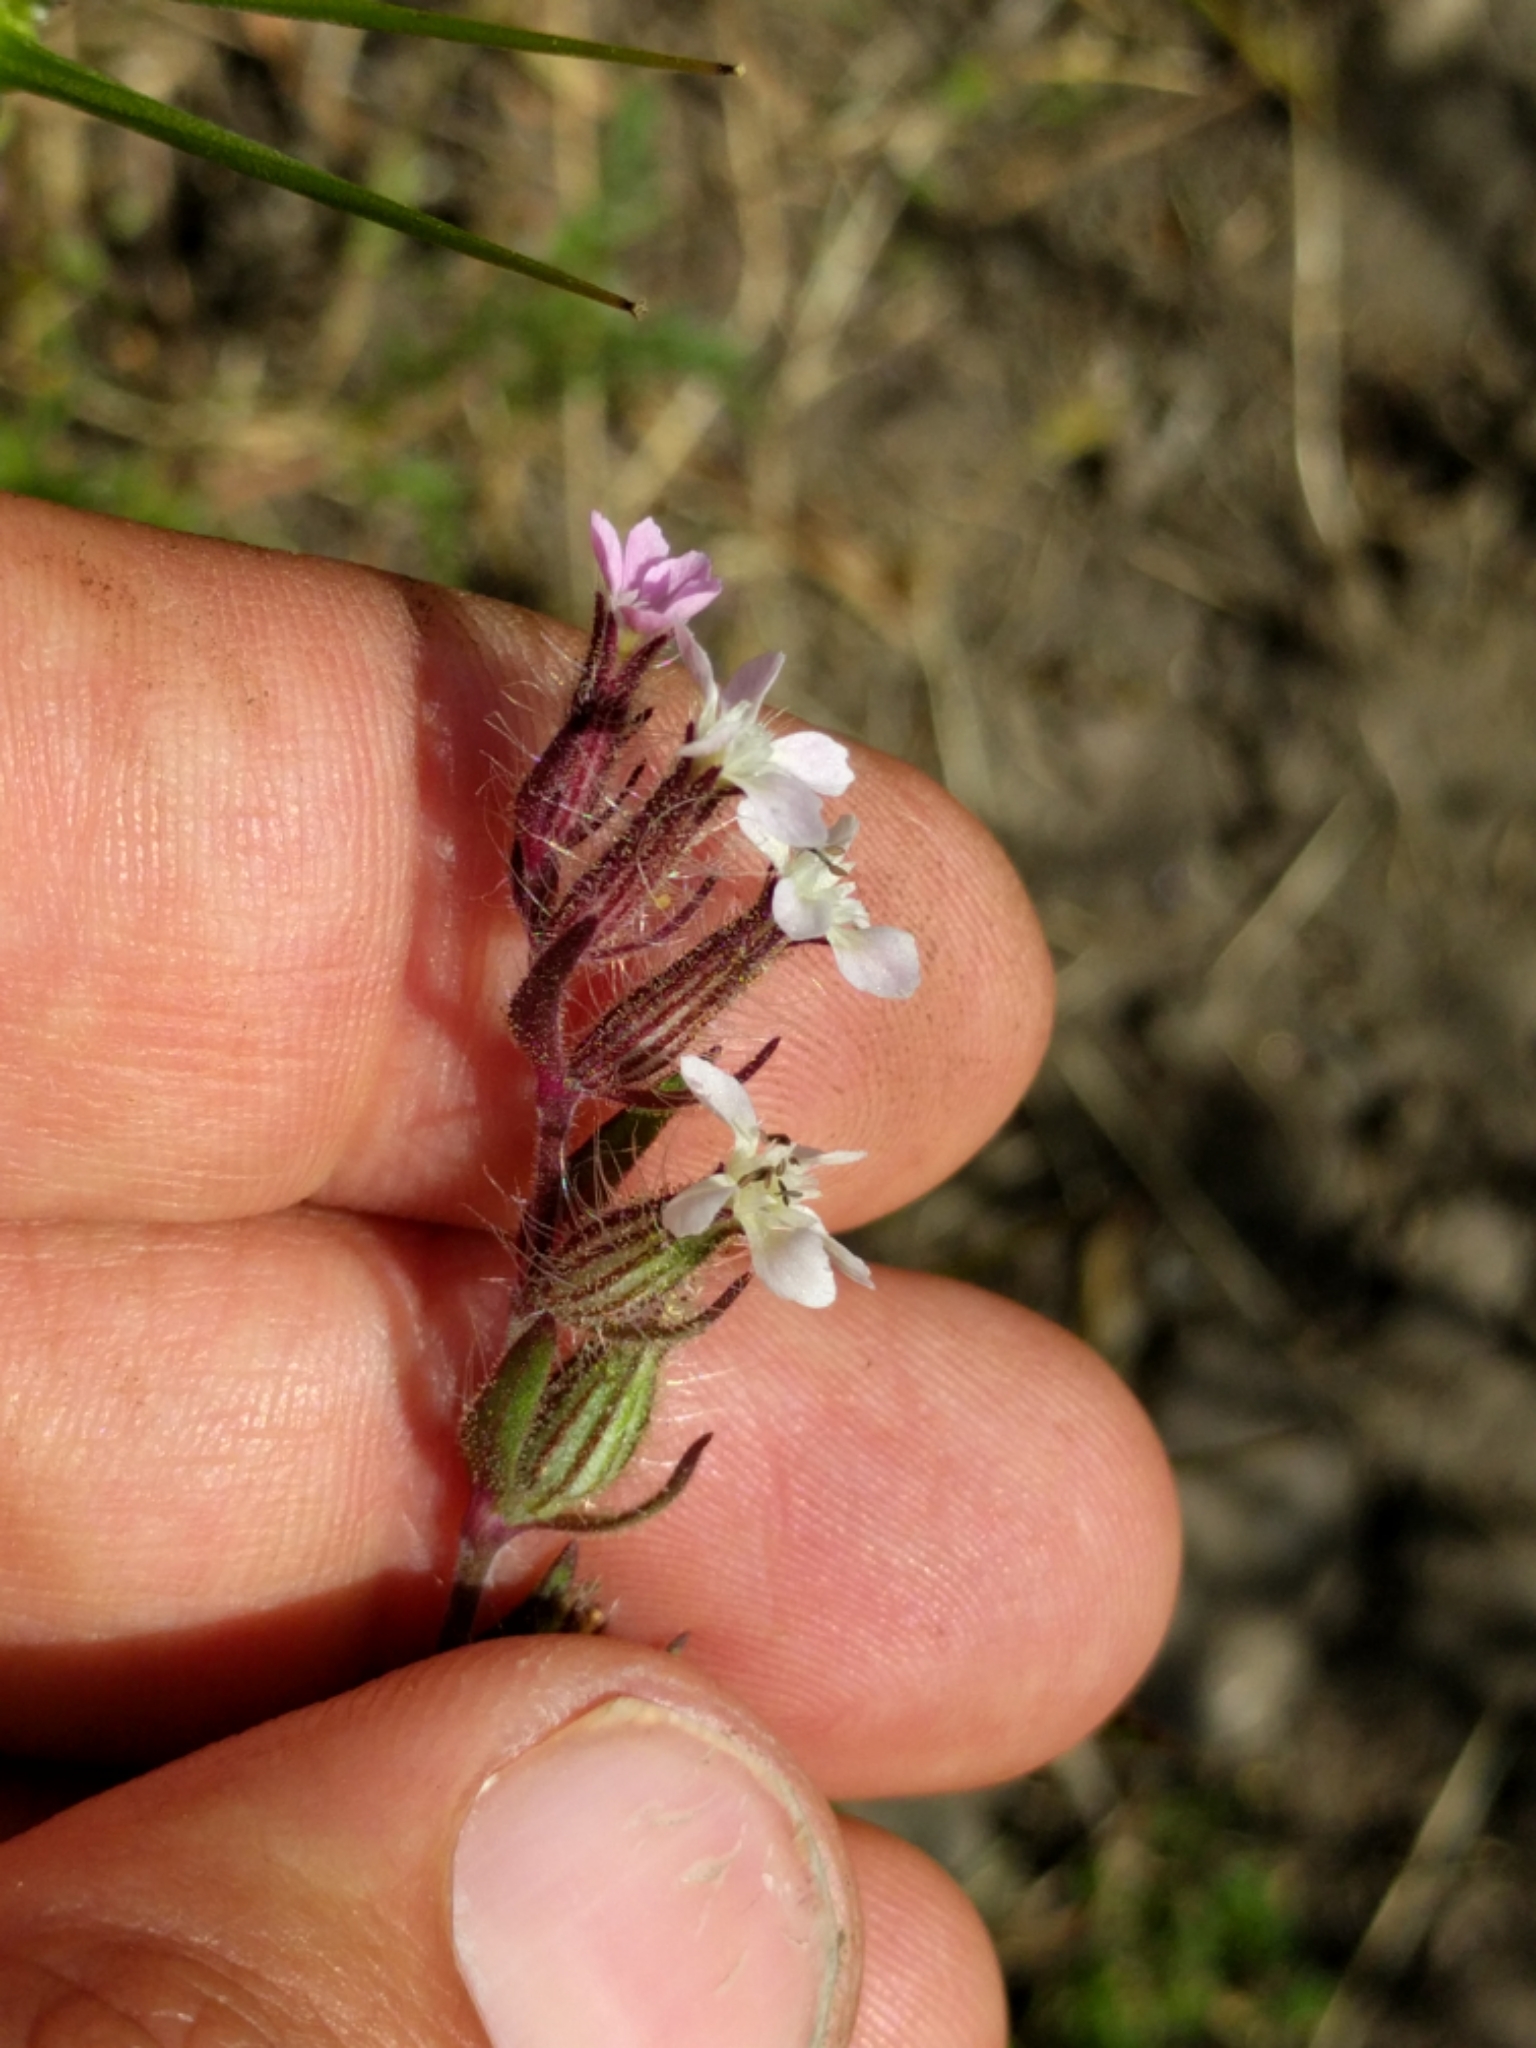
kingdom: Plantae
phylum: Tracheophyta
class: Magnoliopsida
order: Caryophyllales
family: Caryophyllaceae
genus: Silene
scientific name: Silene gallica
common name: Small-flowered catchfly
